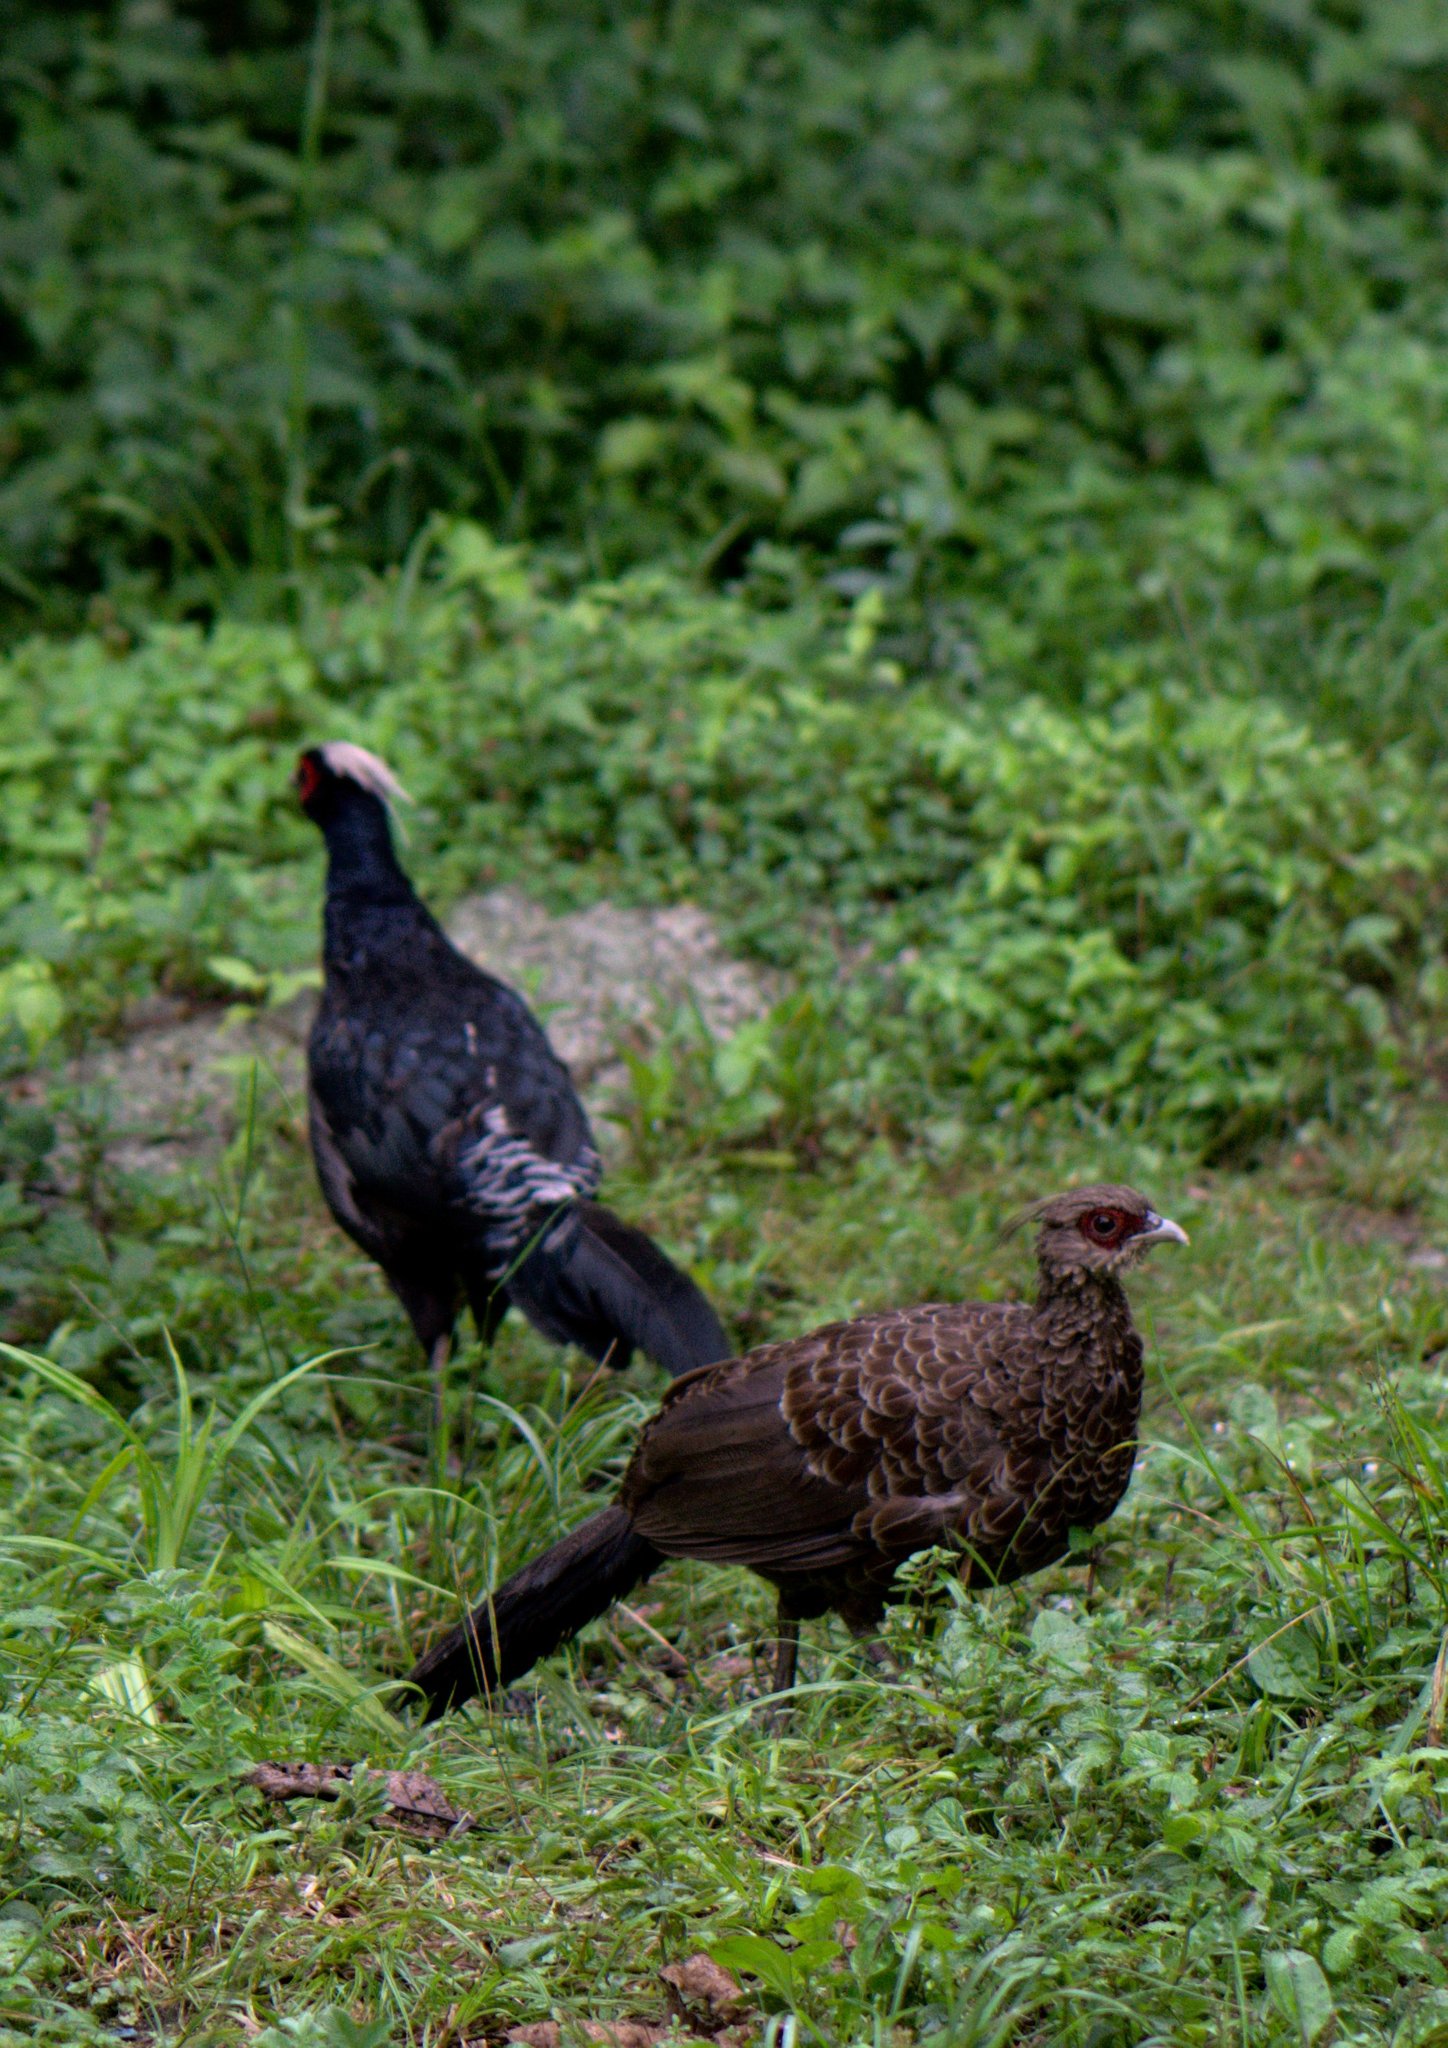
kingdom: Animalia
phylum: Chordata
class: Aves
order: Galliformes
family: Phasianidae
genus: Lophura
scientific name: Lophura leucomelanos
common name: Kalij pheasant
